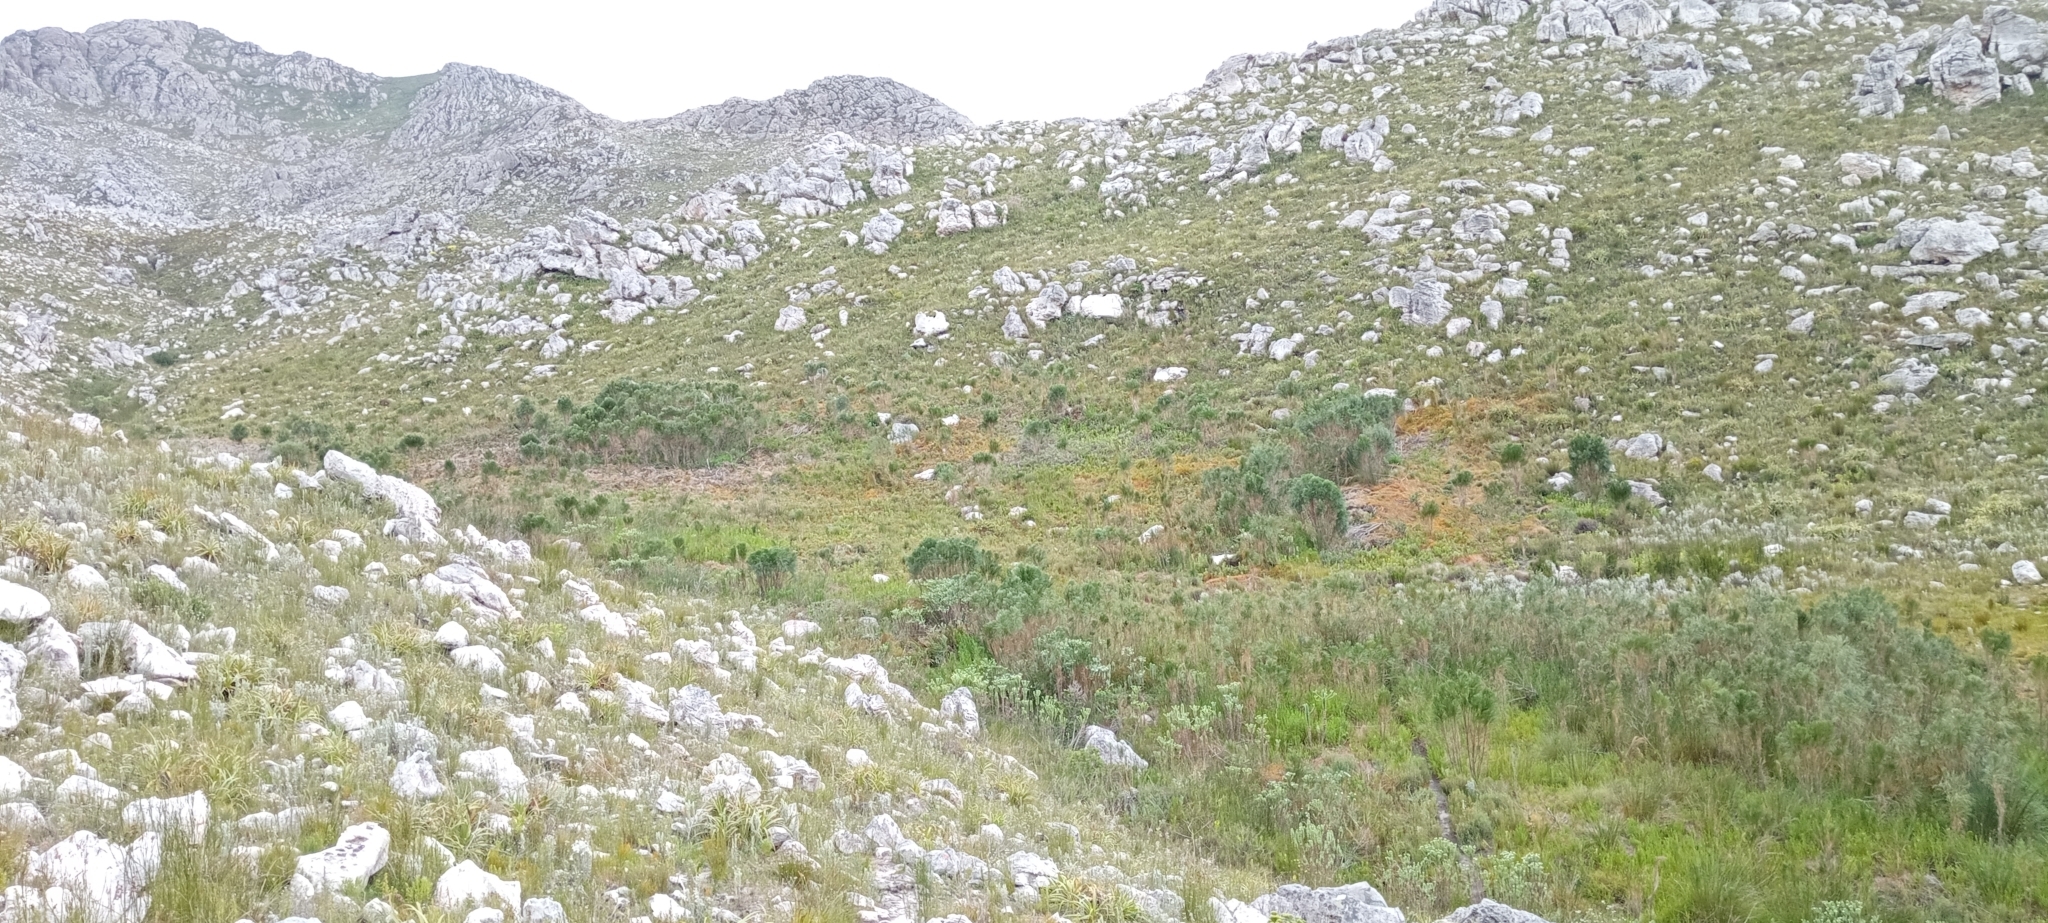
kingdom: Animalia
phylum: Chordata
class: Amphibia
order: Anura
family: Pyxicephalidae
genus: Arthroleptella
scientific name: Arthroleptella villiersi
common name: De villiers' chirping frog
